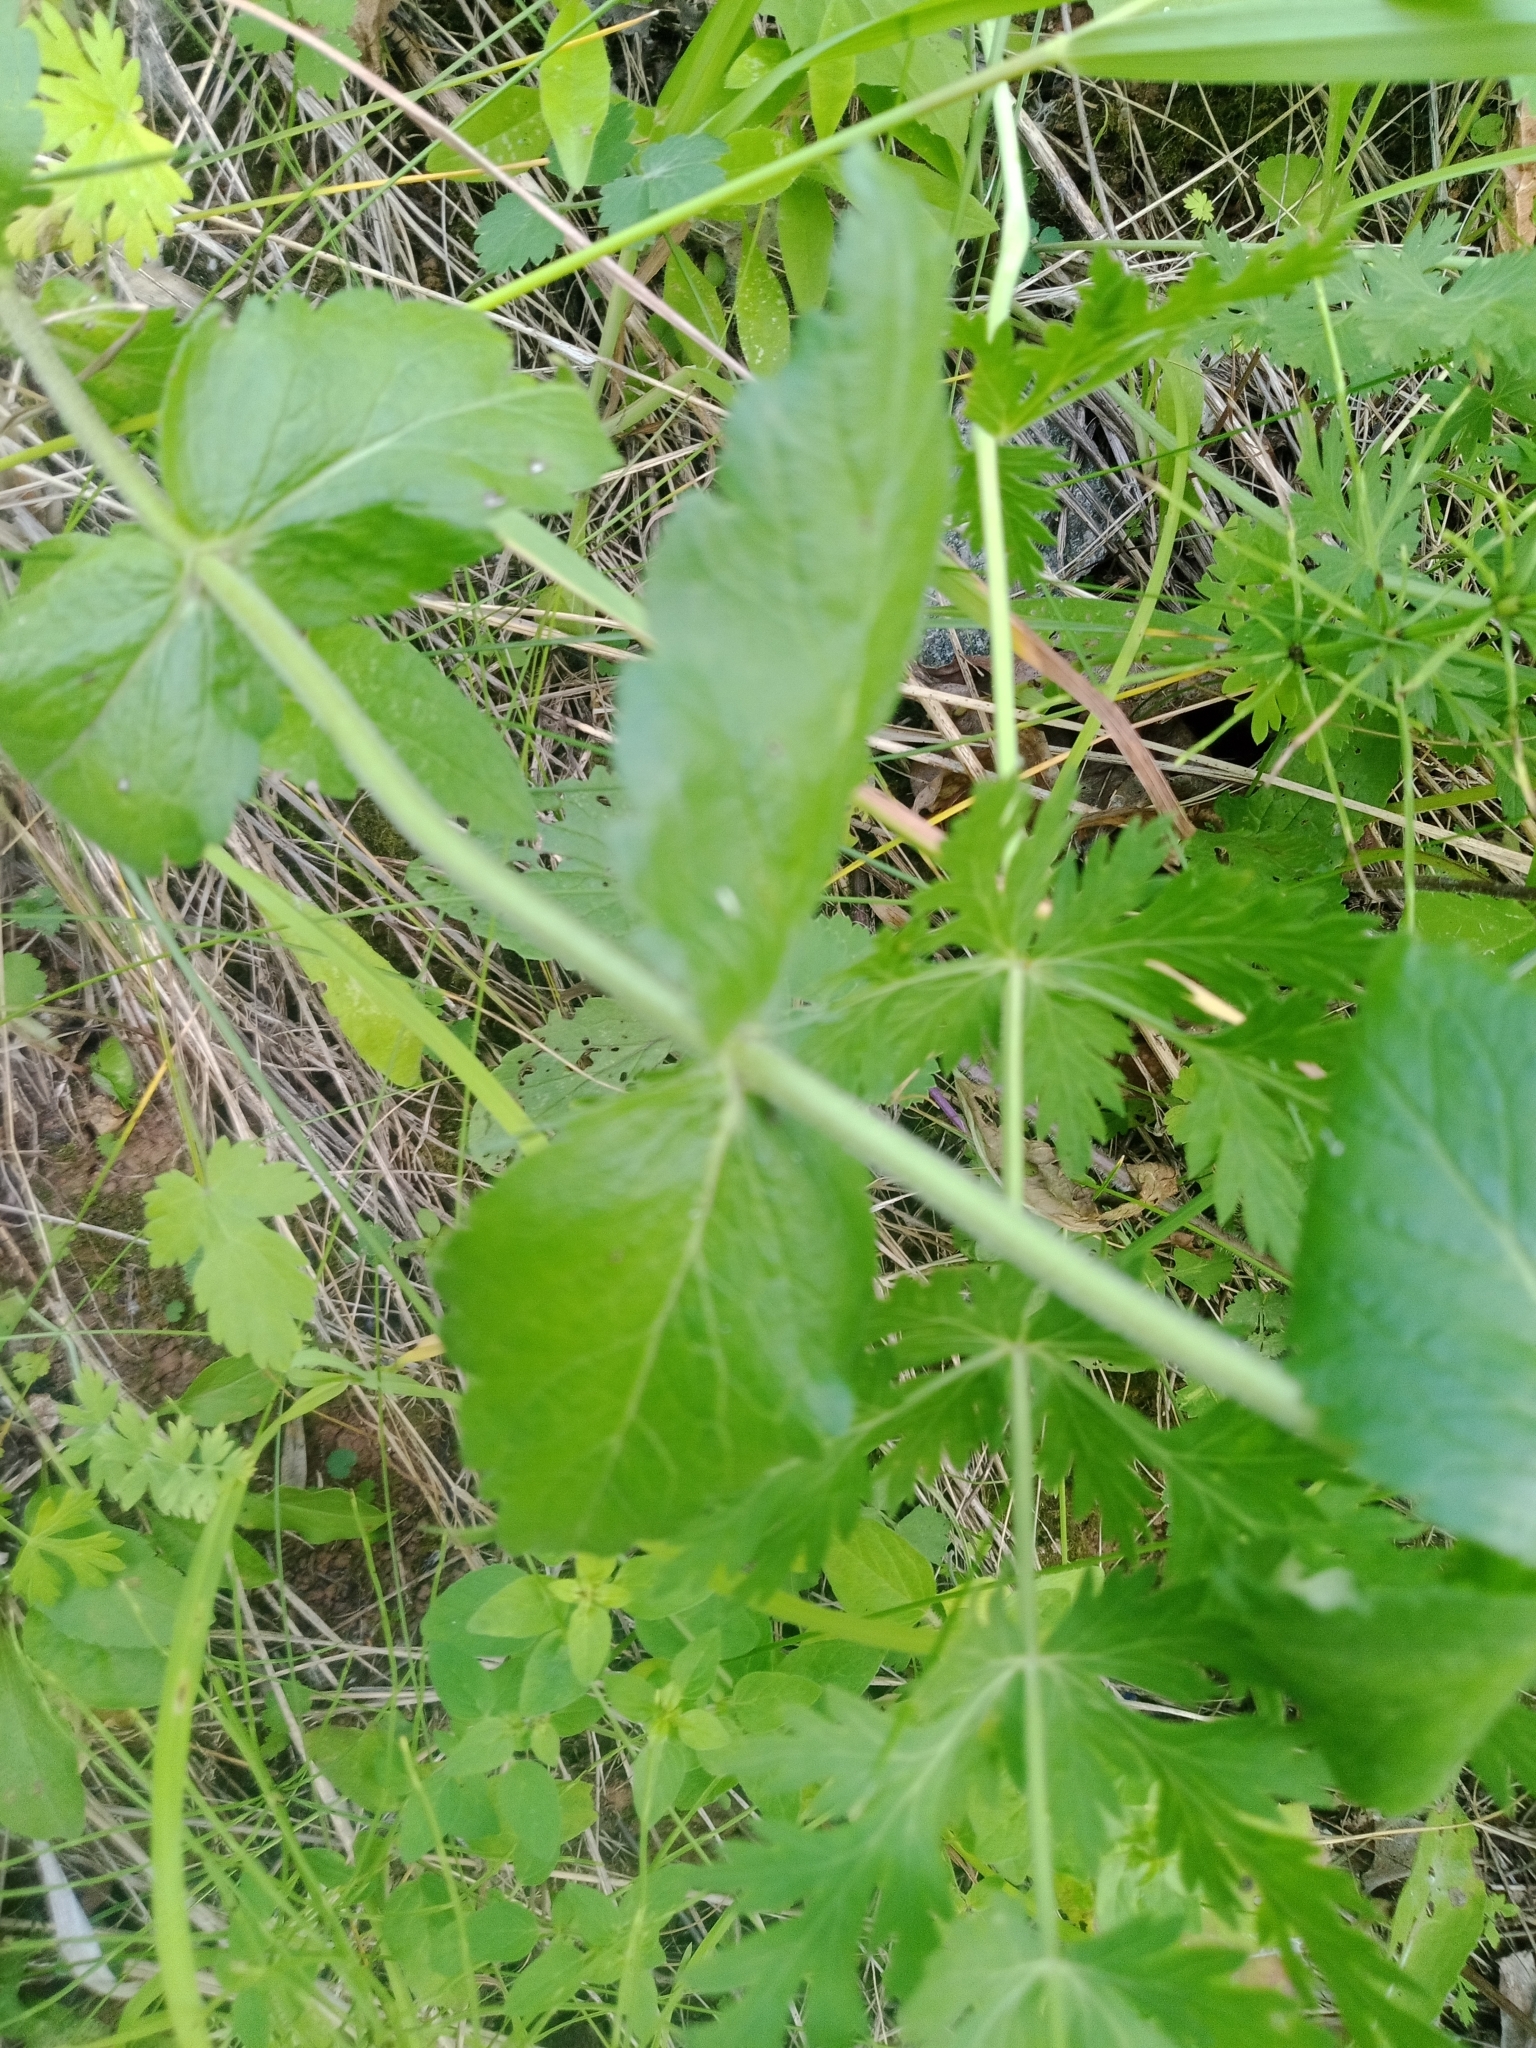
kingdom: Plantae
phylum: Tracheophyta
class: Magnoliopsida
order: Lamiales
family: Plantaginaceae
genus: Veronica
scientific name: Veronica teucrium
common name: Large speedwell
